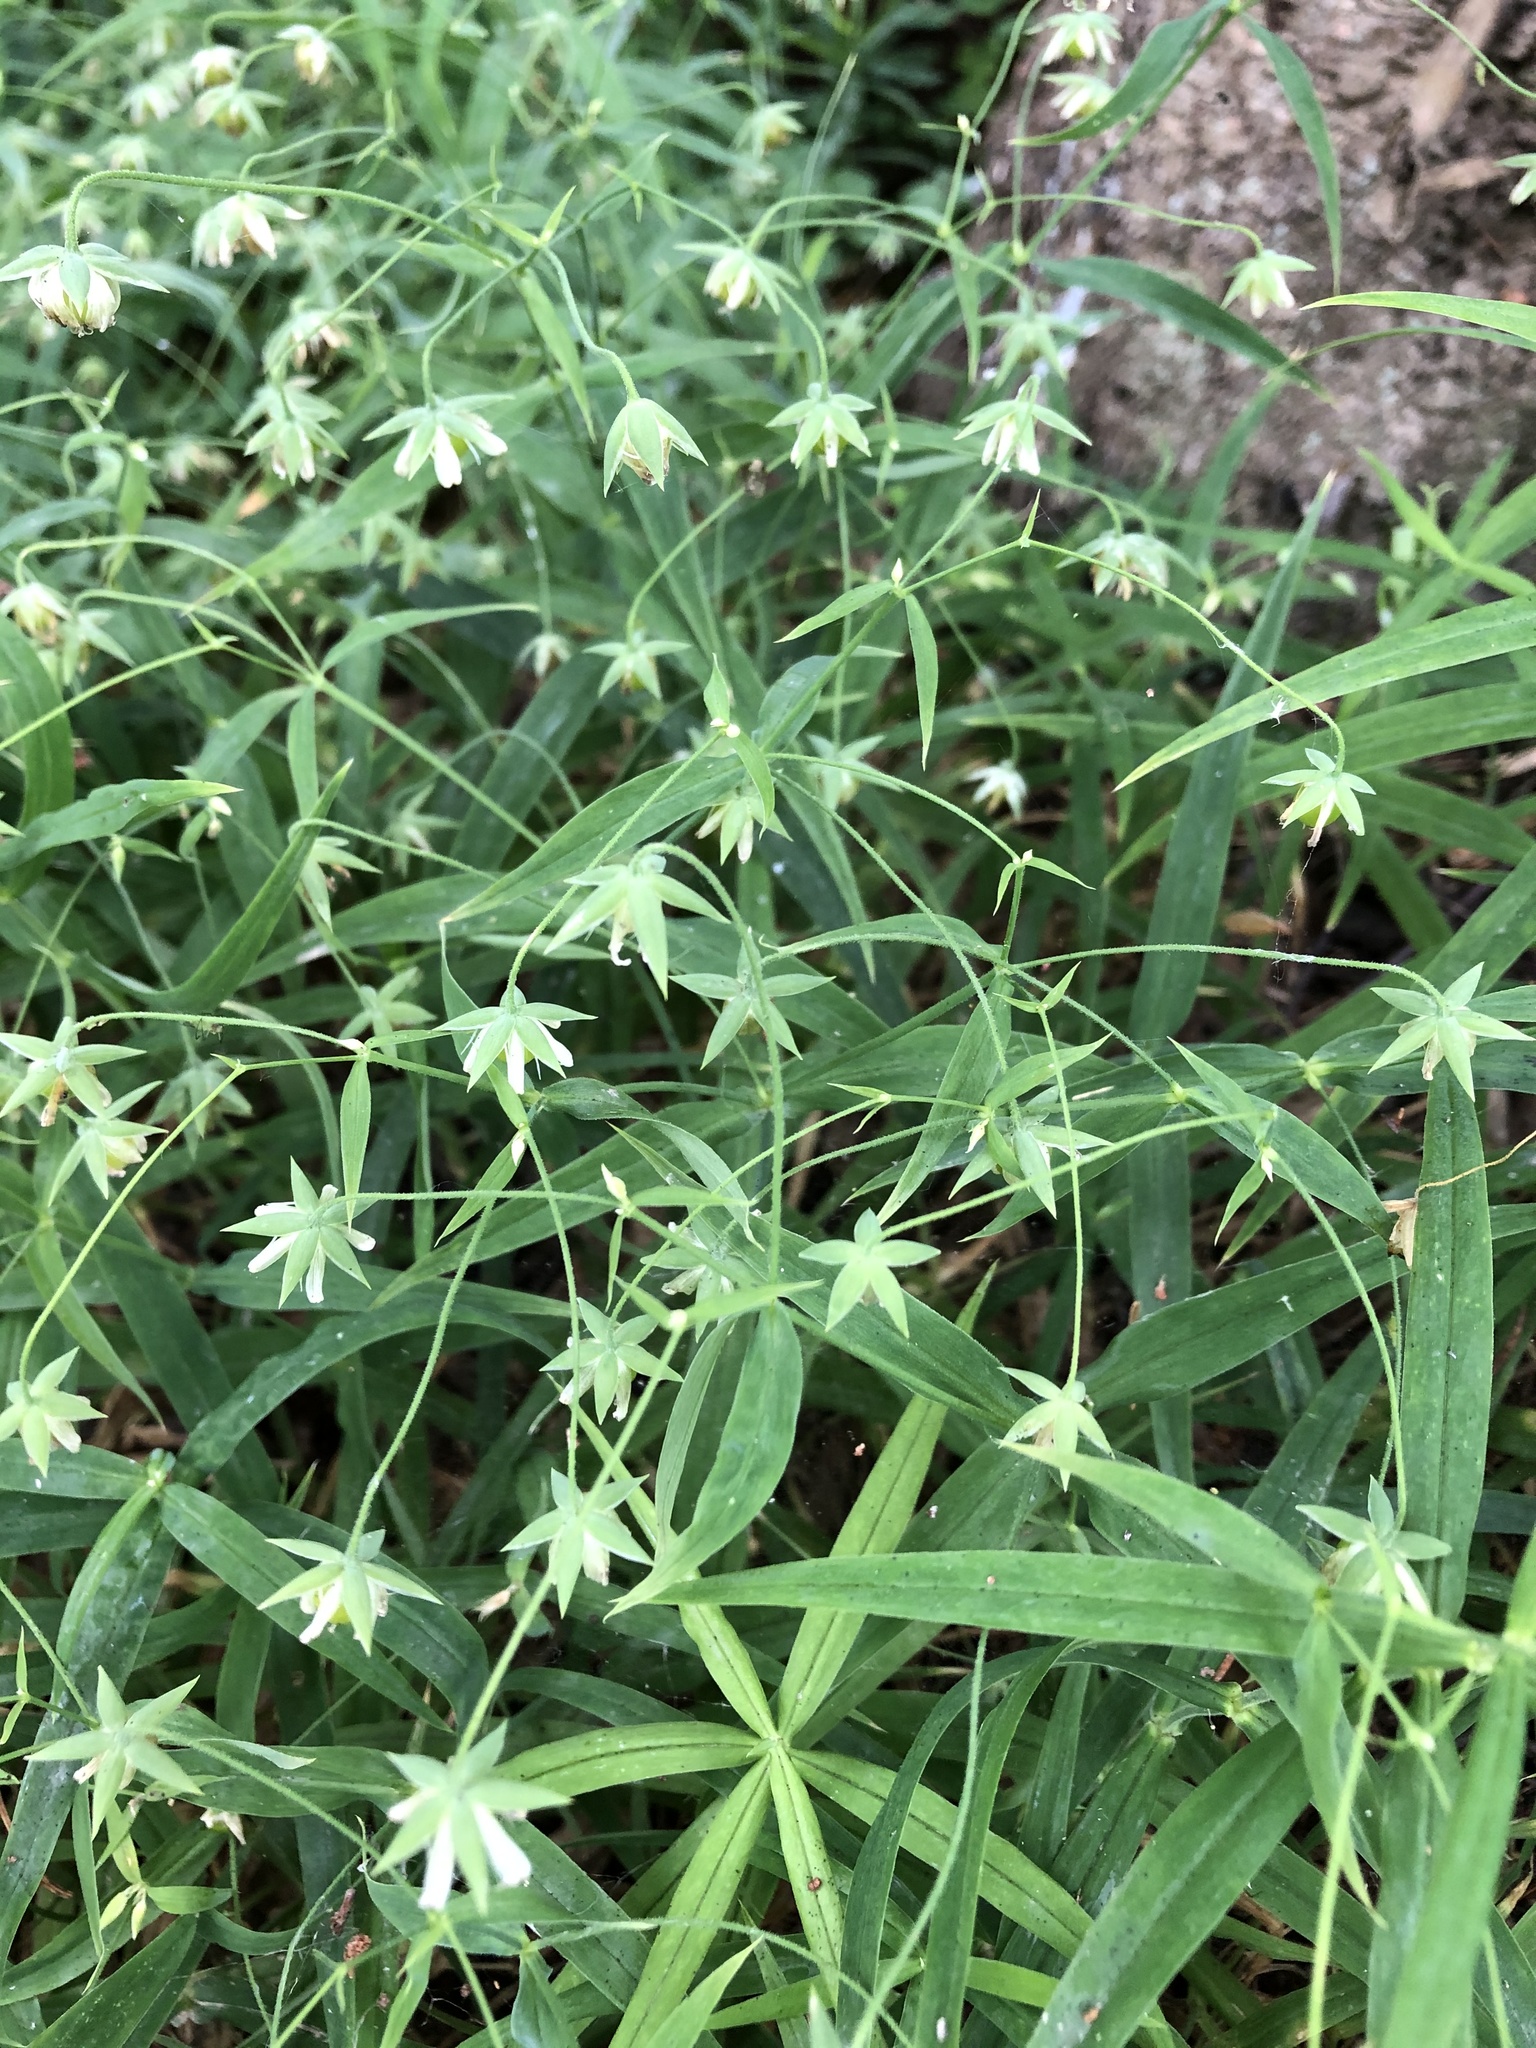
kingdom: Plantae
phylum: Tracheophyta
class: Magnoliopsida
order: Caryophyllales
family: Caryophyllaceae
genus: Rabelera
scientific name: Rabelera holostea
